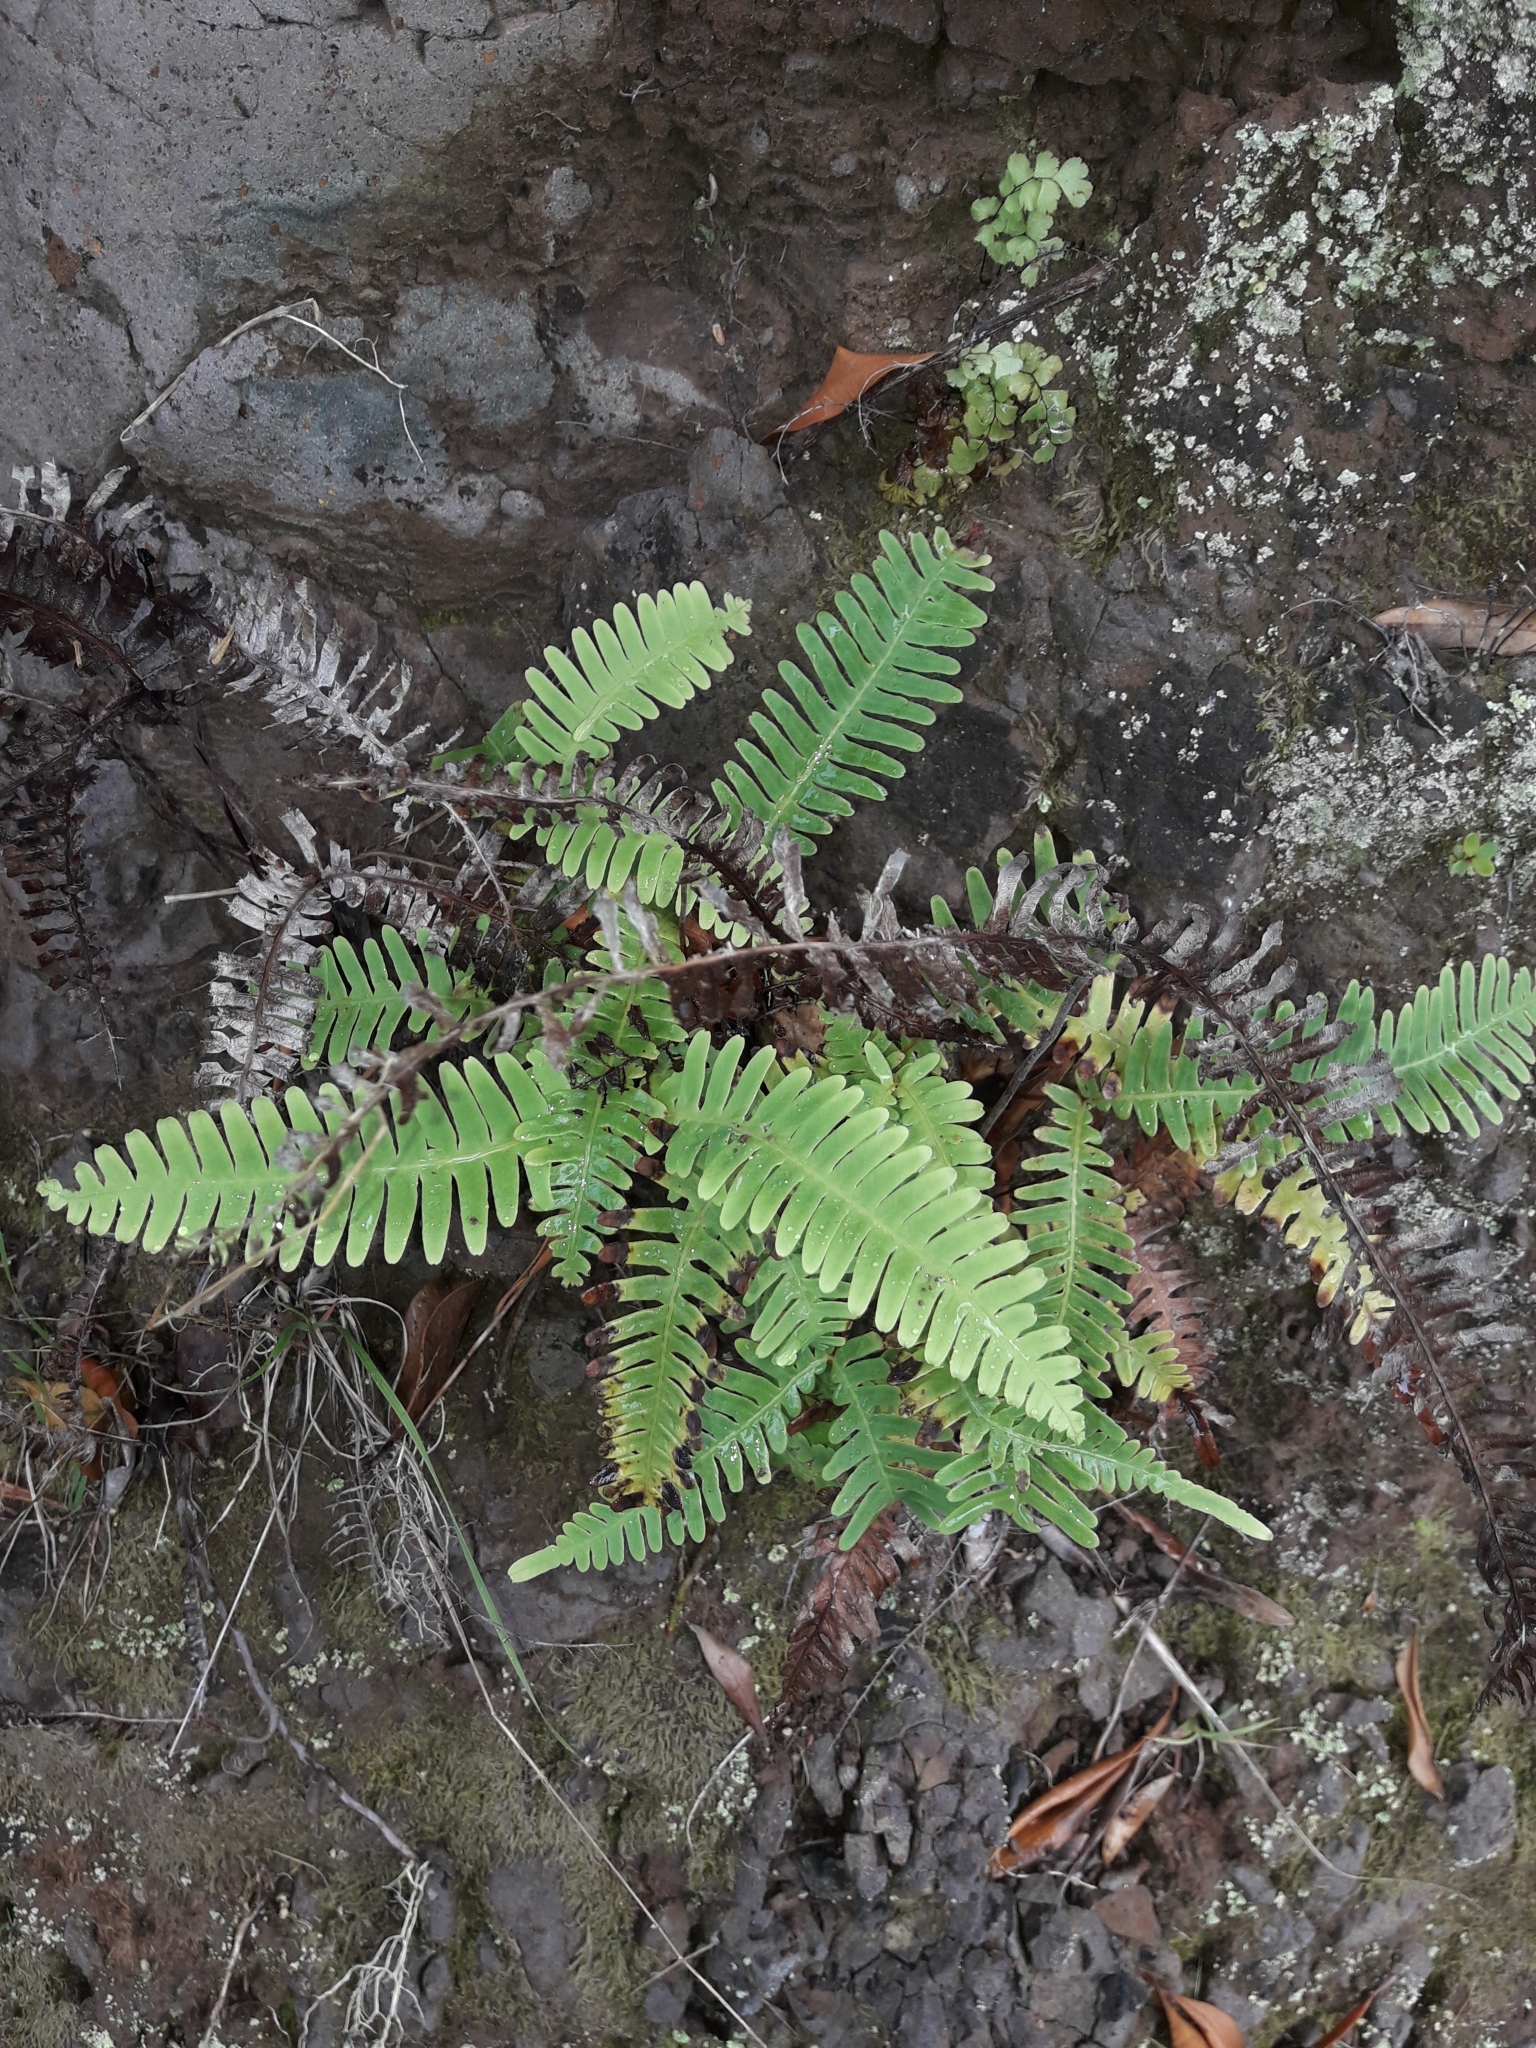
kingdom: Plantae
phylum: Tracheophyta
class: Polypodiopsida
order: Gleicheniales
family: Gleicheniaceae
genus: Dicranopteris
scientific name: Dicranopteris linearis
